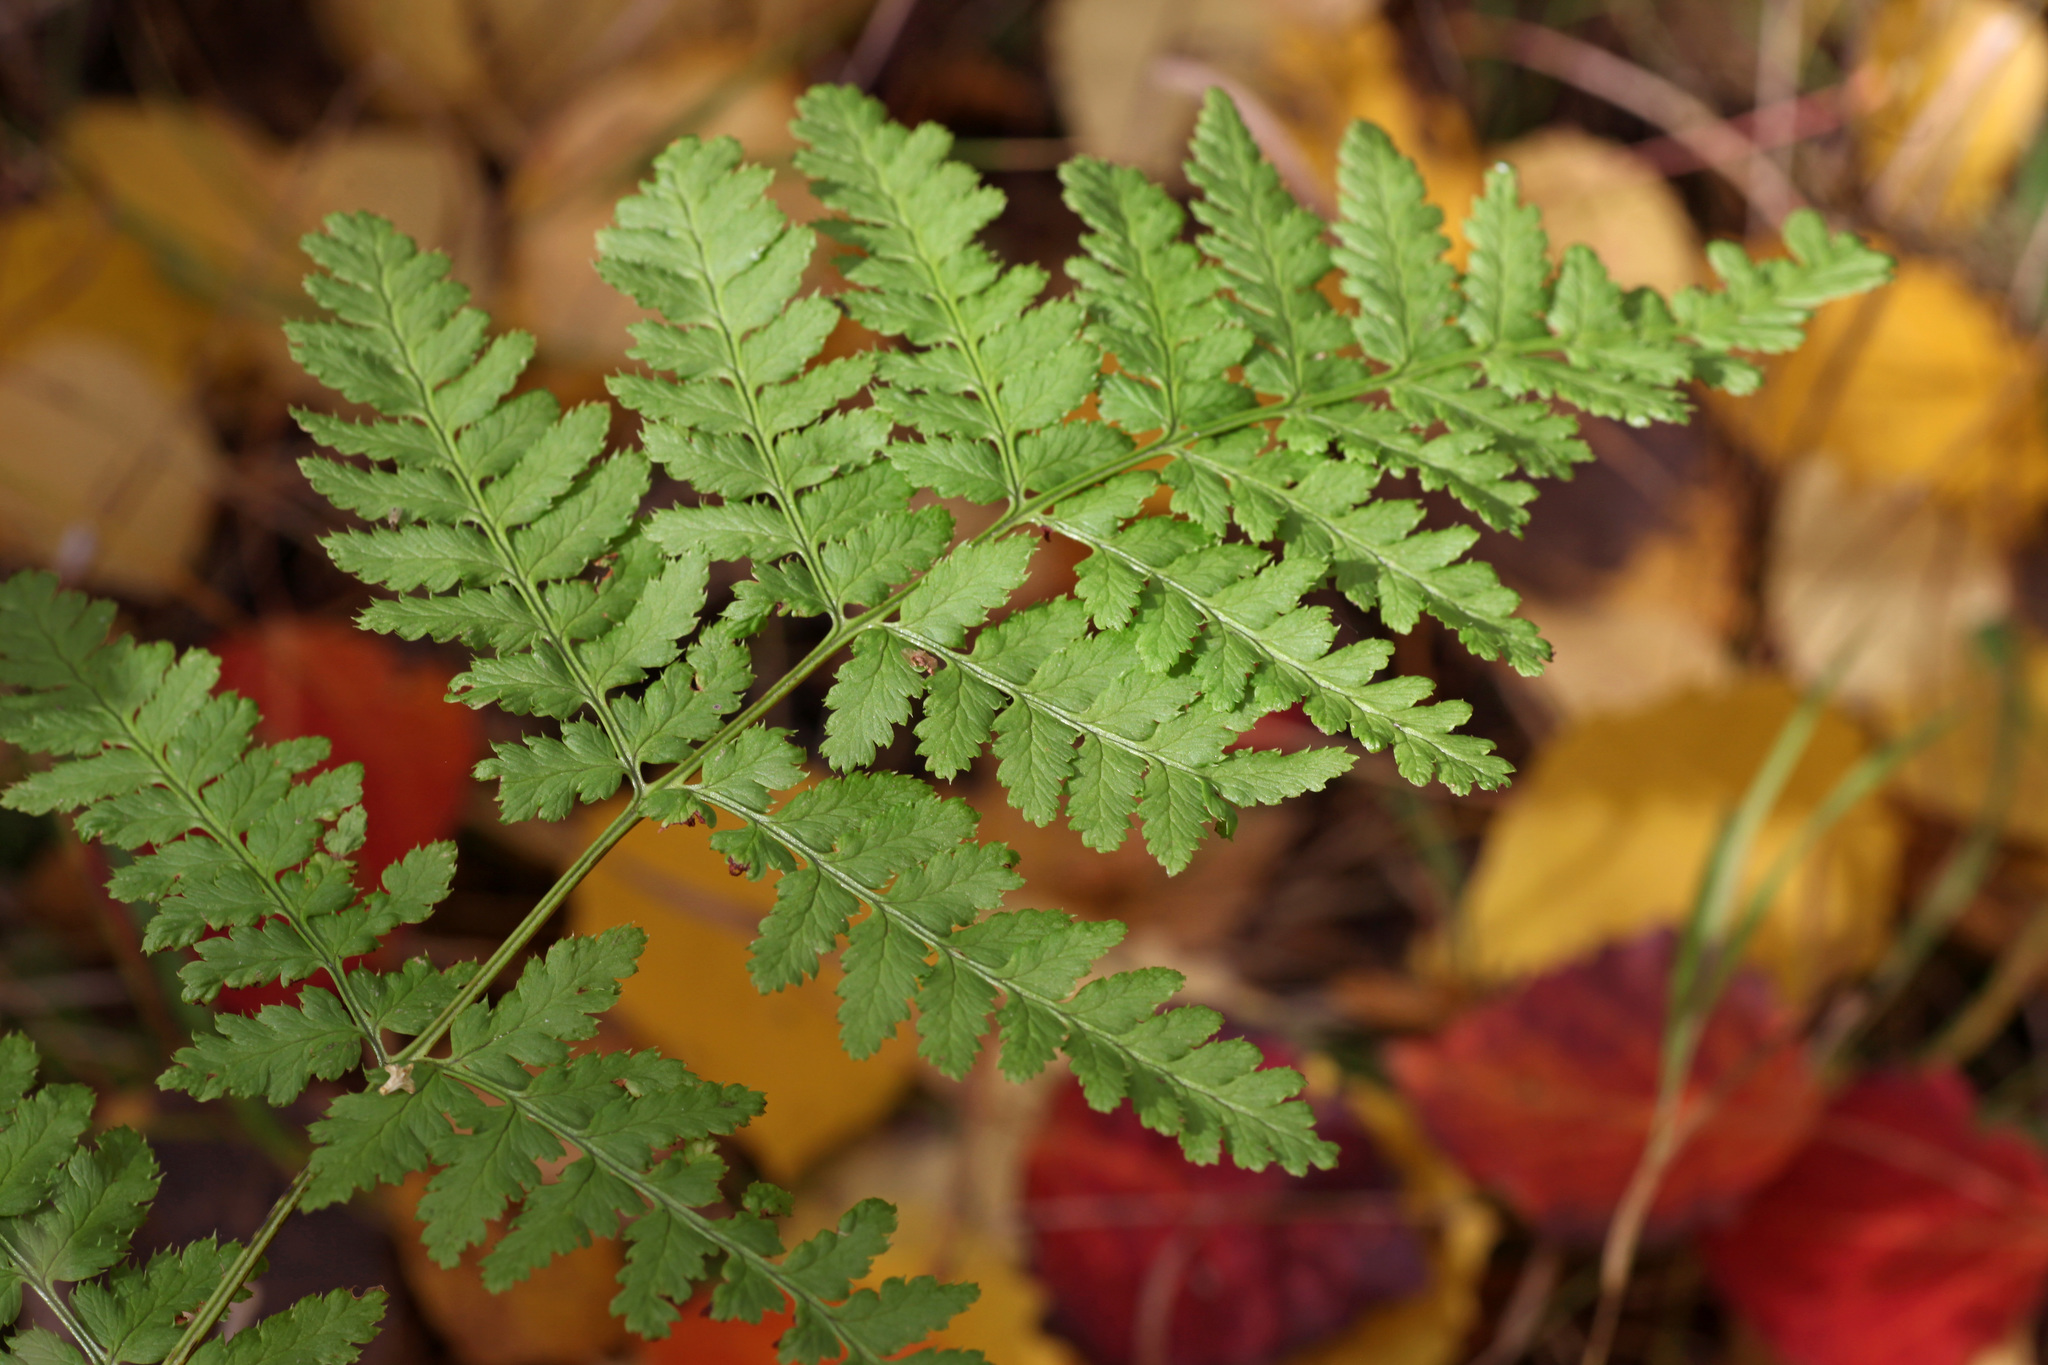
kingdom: Plantae
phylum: Tracheophyta
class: Polypodiopsida
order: Polypodiales
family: Dryopteridaceae
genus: Dryopteris
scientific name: Dryopteris carthusiana
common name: Narrow buckler-fern
